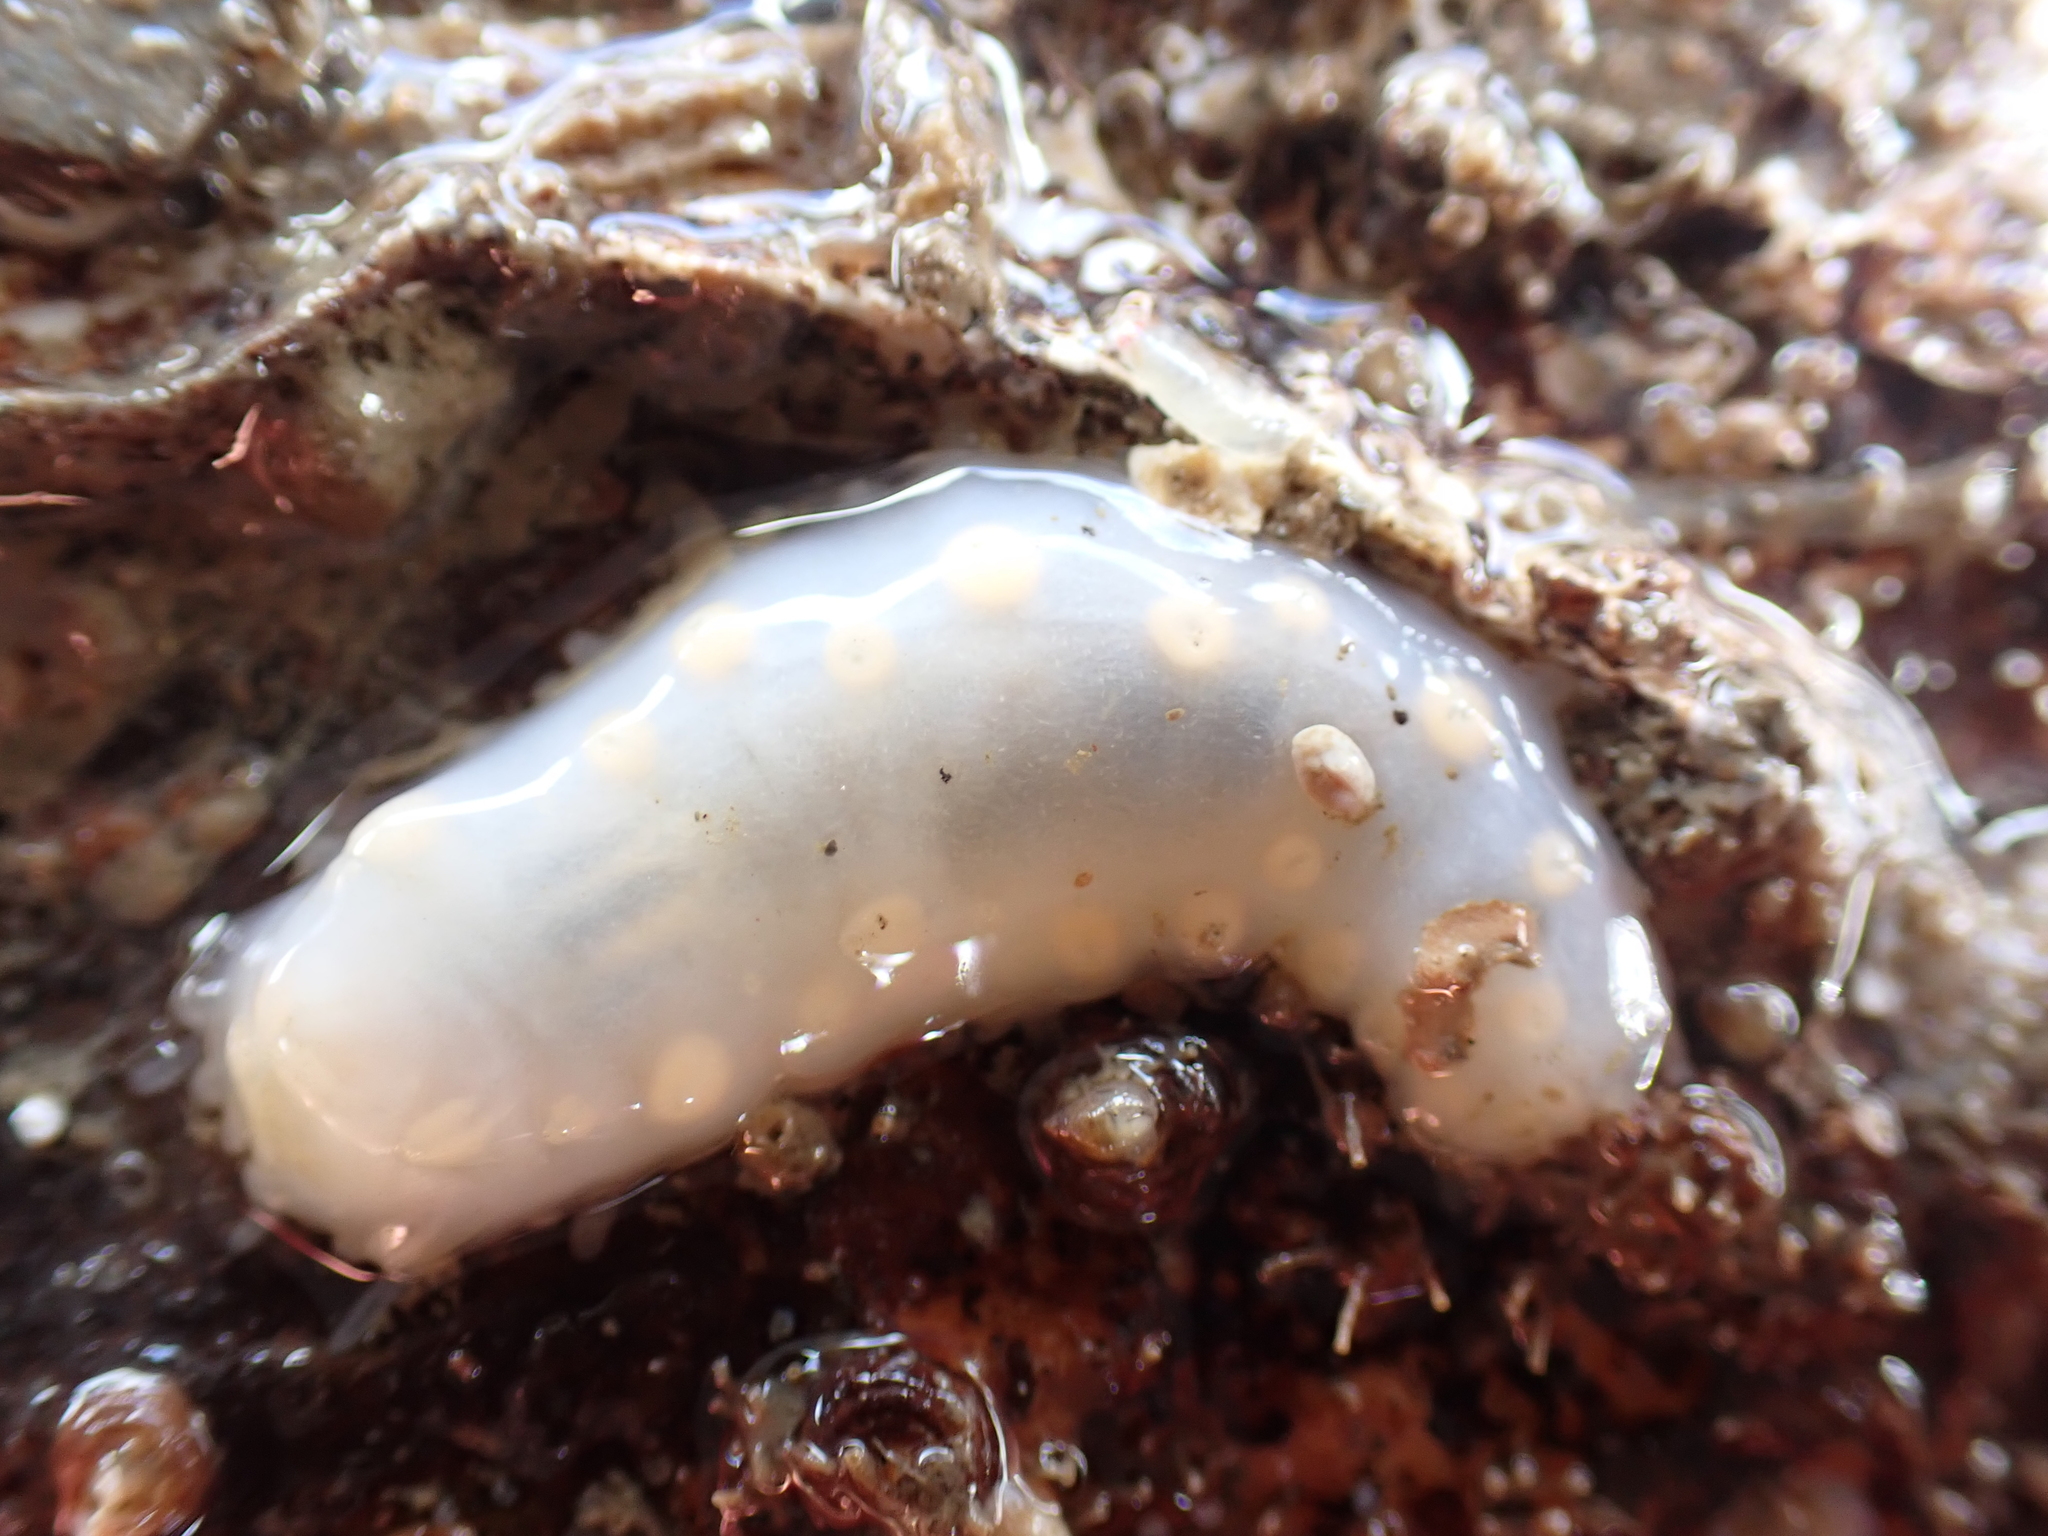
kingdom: Animalia
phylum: Echinodermata
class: Holothuroidea
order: Dendrochirotida
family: Cucumariidae
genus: Pawsonia
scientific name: Pawsonia saxicola
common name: Sea gherkin
